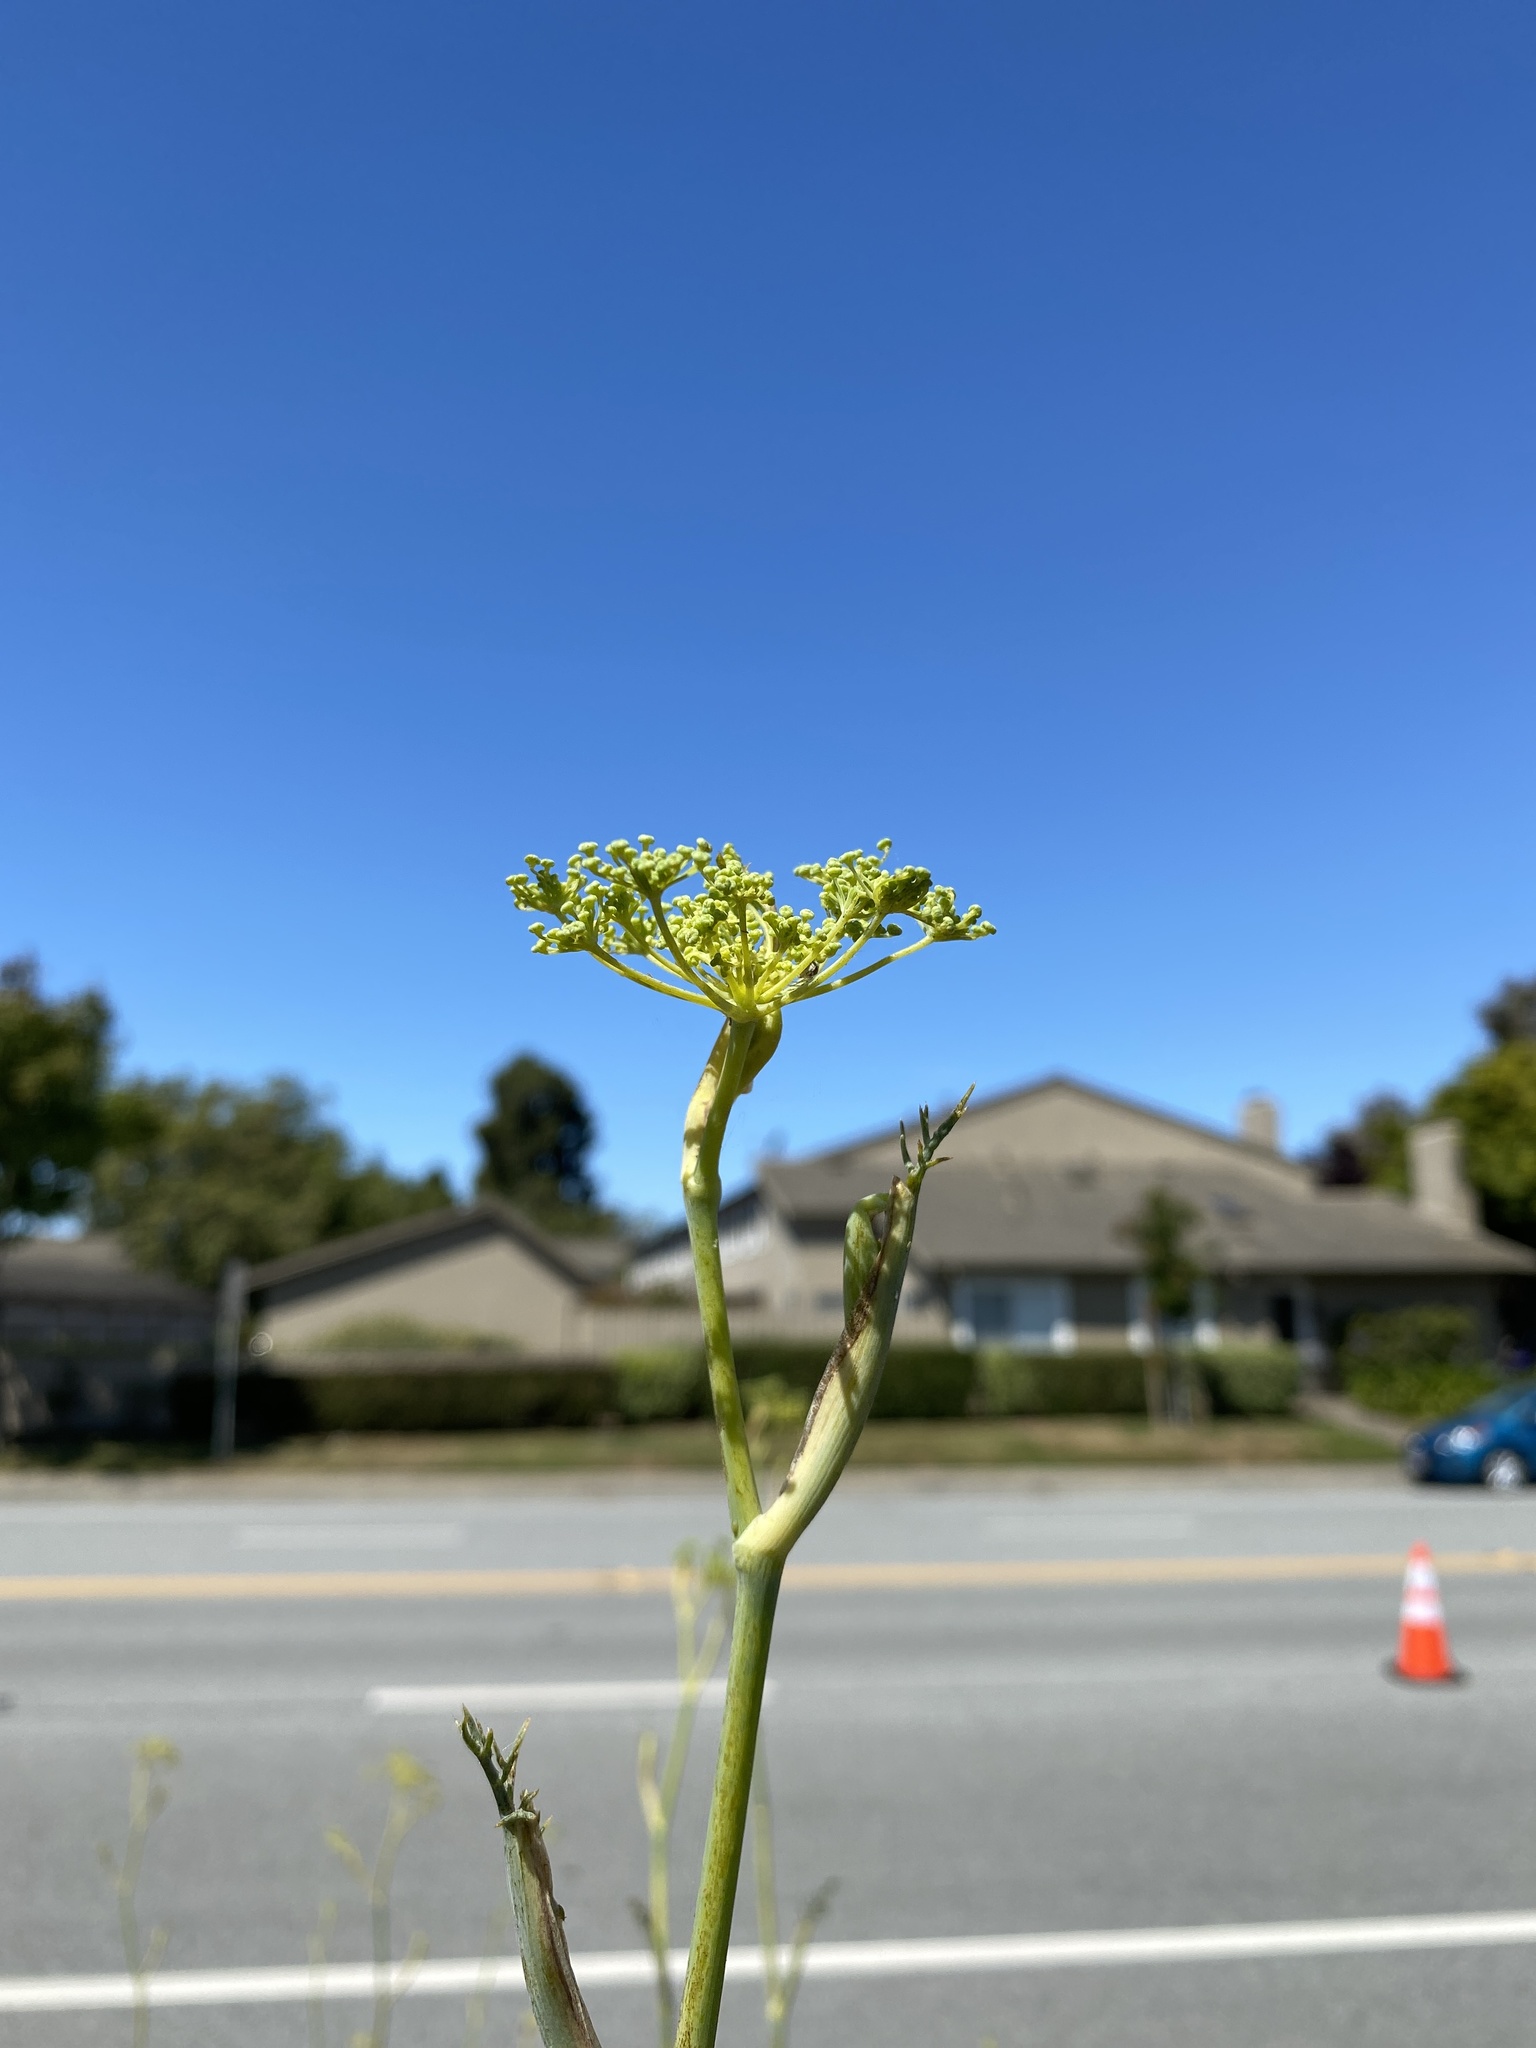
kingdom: Plantae
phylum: Tracheophyta
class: Magnoliopsida
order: Apiales
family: Apiaceae
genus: Foeniculum
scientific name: Foeniculum vulgare
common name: Fennel
